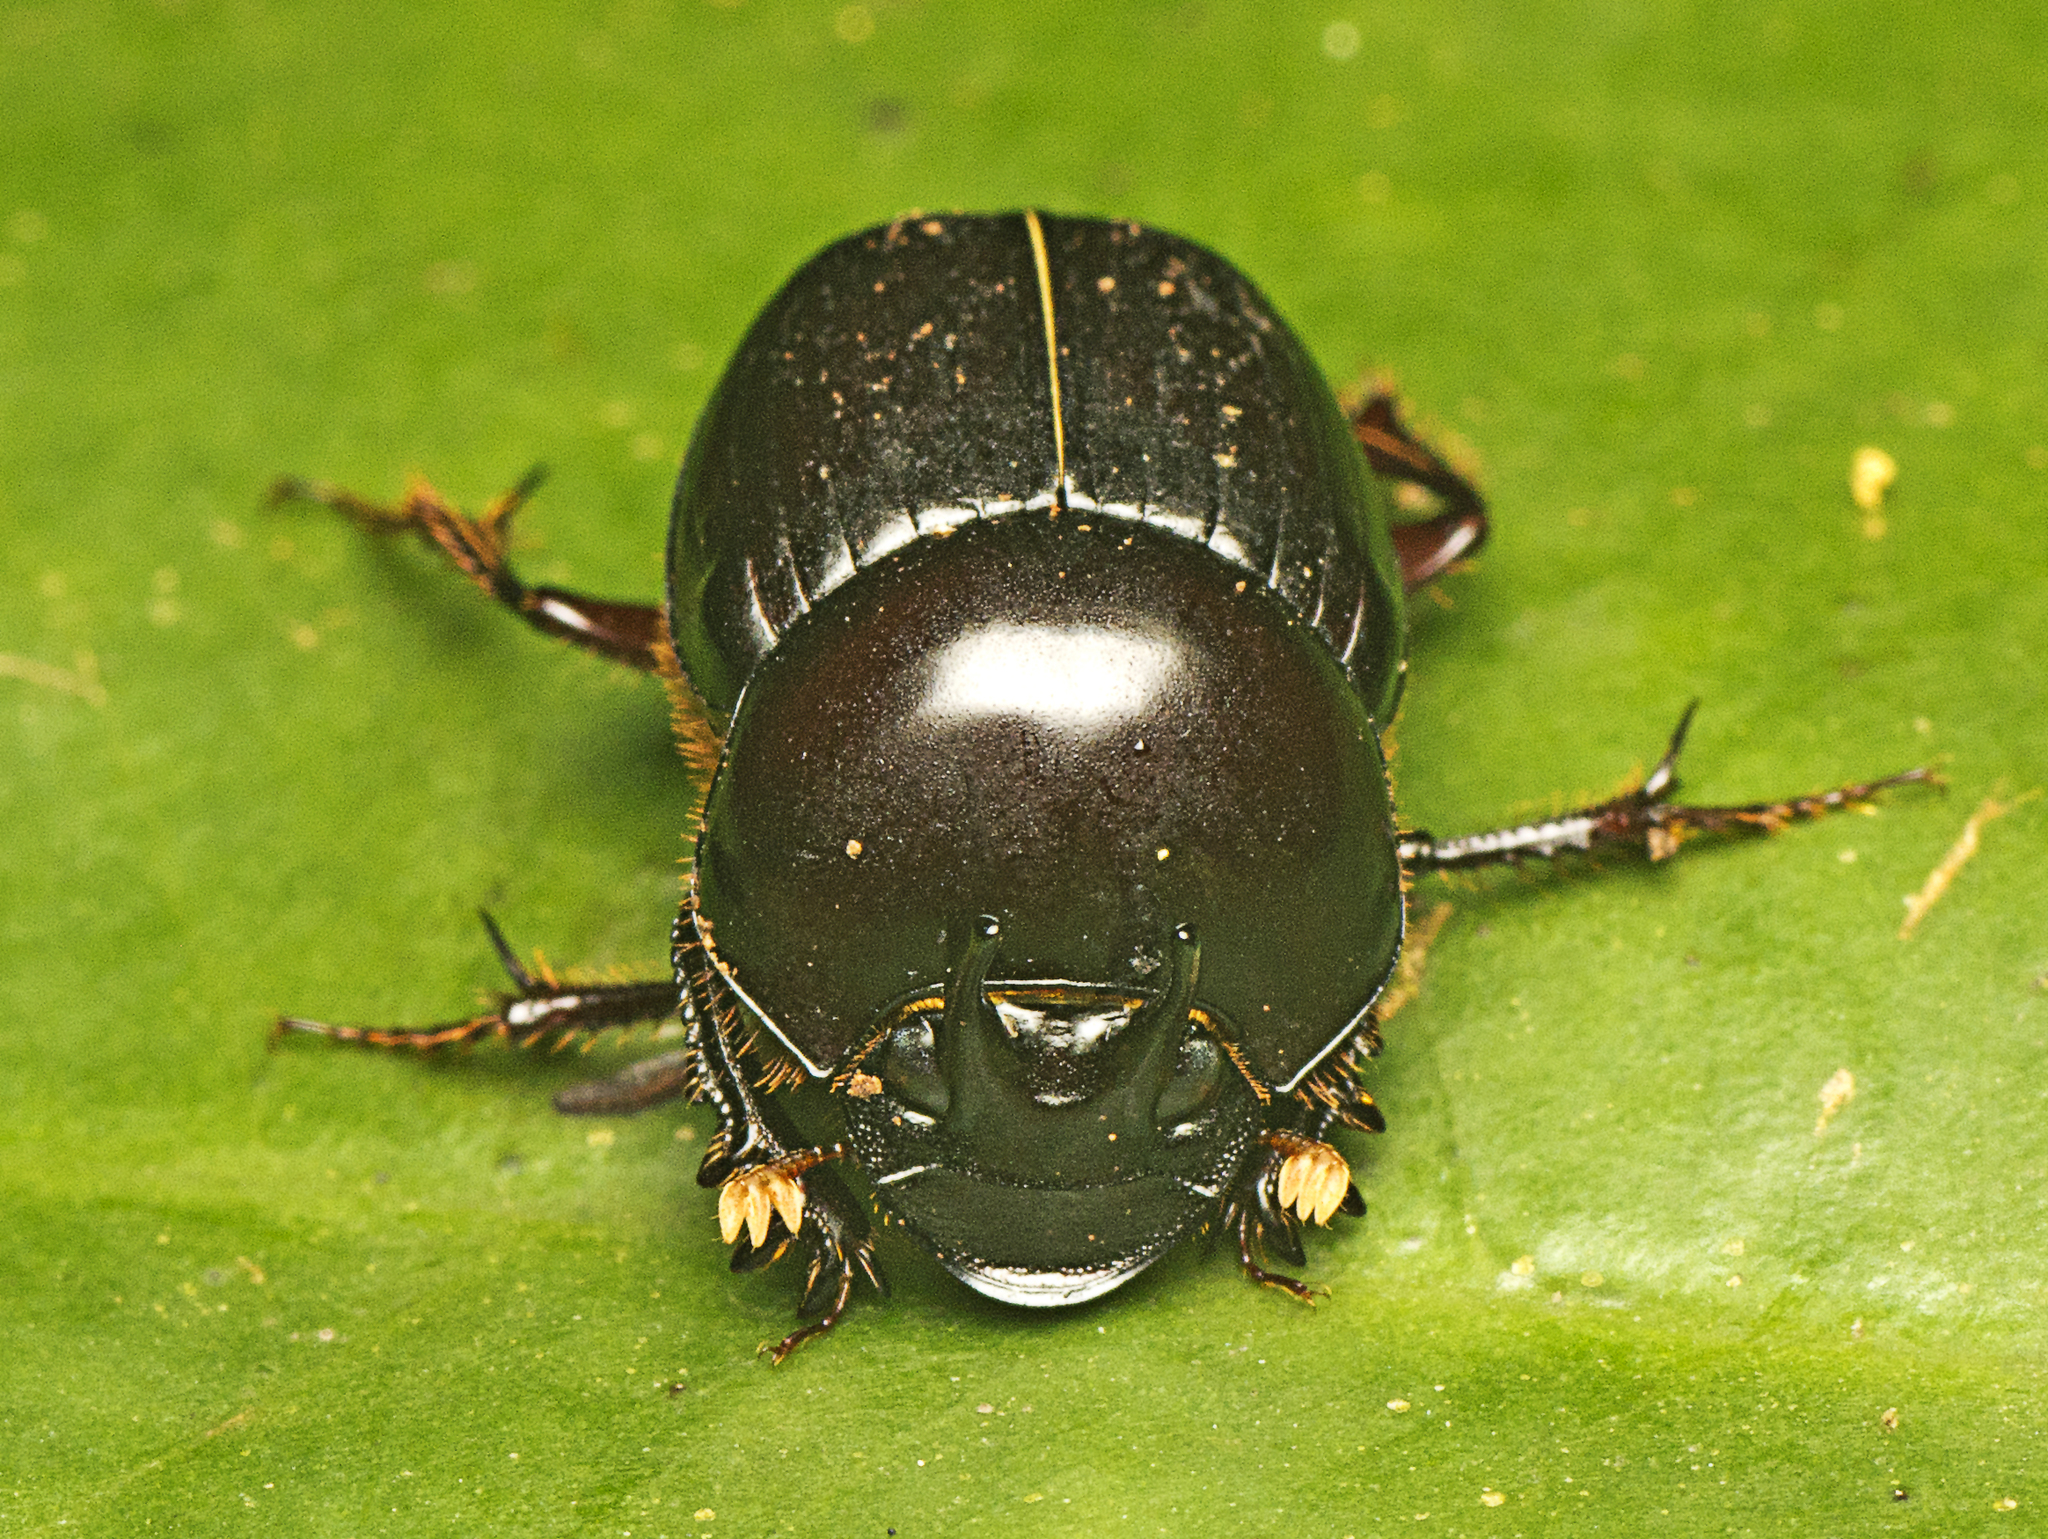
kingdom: Animalia
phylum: Arthropoda
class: Insecta
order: Coleoptera
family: Scarabaeidae
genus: Onthophagus
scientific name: Onthophagus neostenocerus
